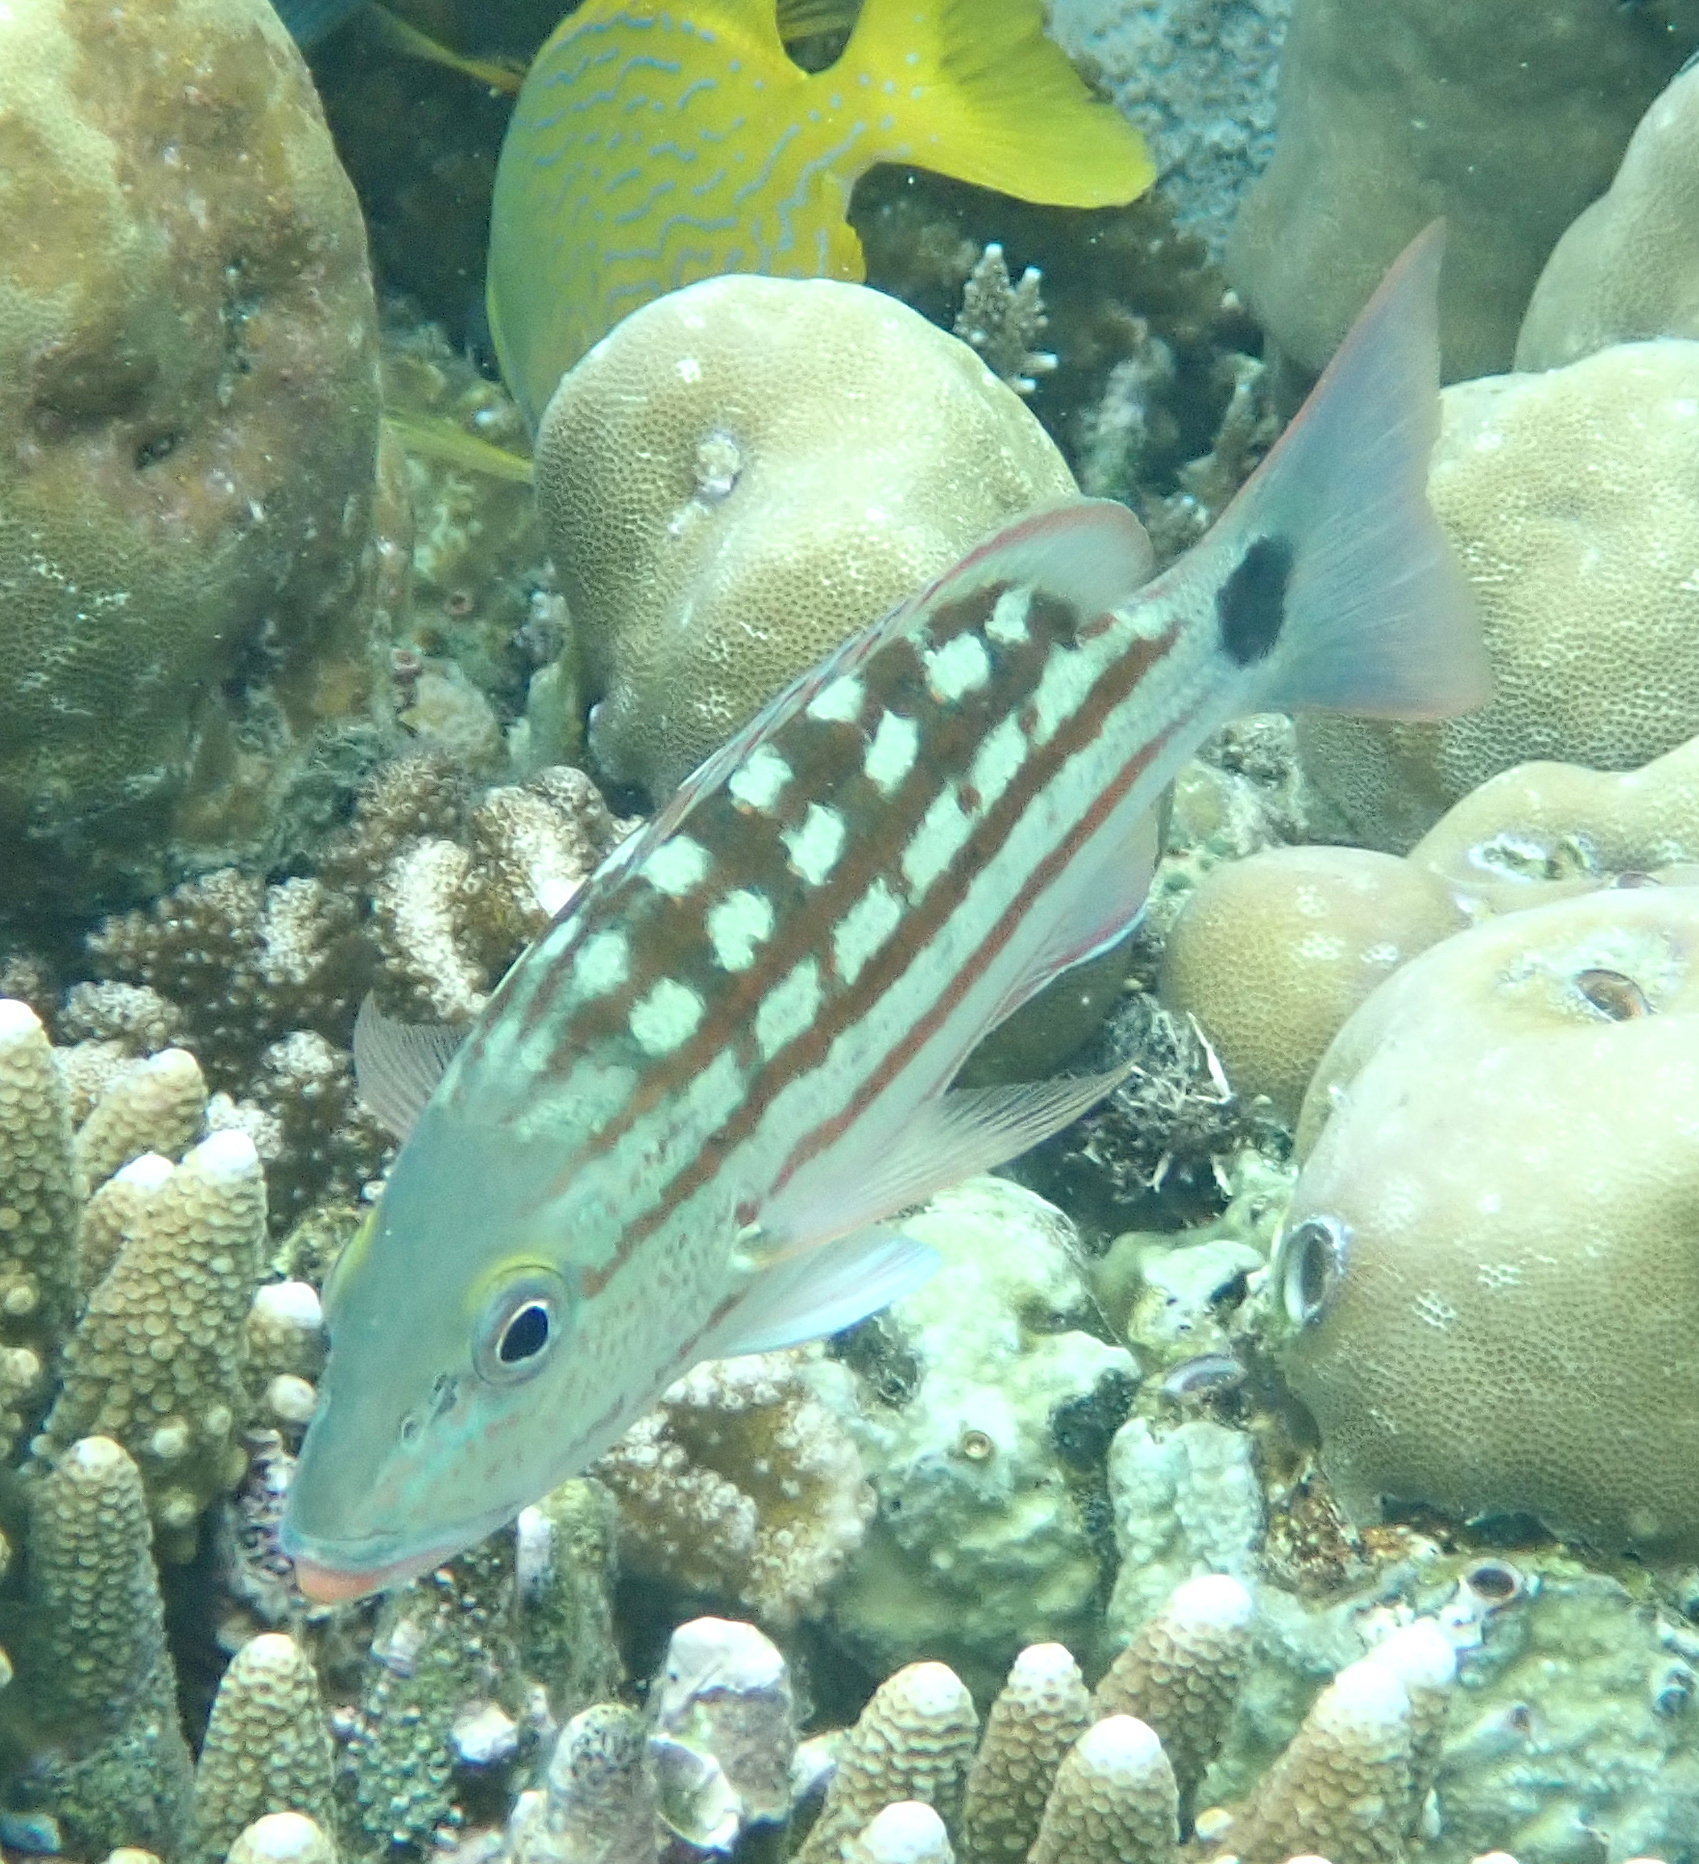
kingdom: Animalia
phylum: Chordata
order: Perciformes
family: Lutjanidae
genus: Lutjanus
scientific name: Lutjanus decussatus
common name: Checkered snapper
